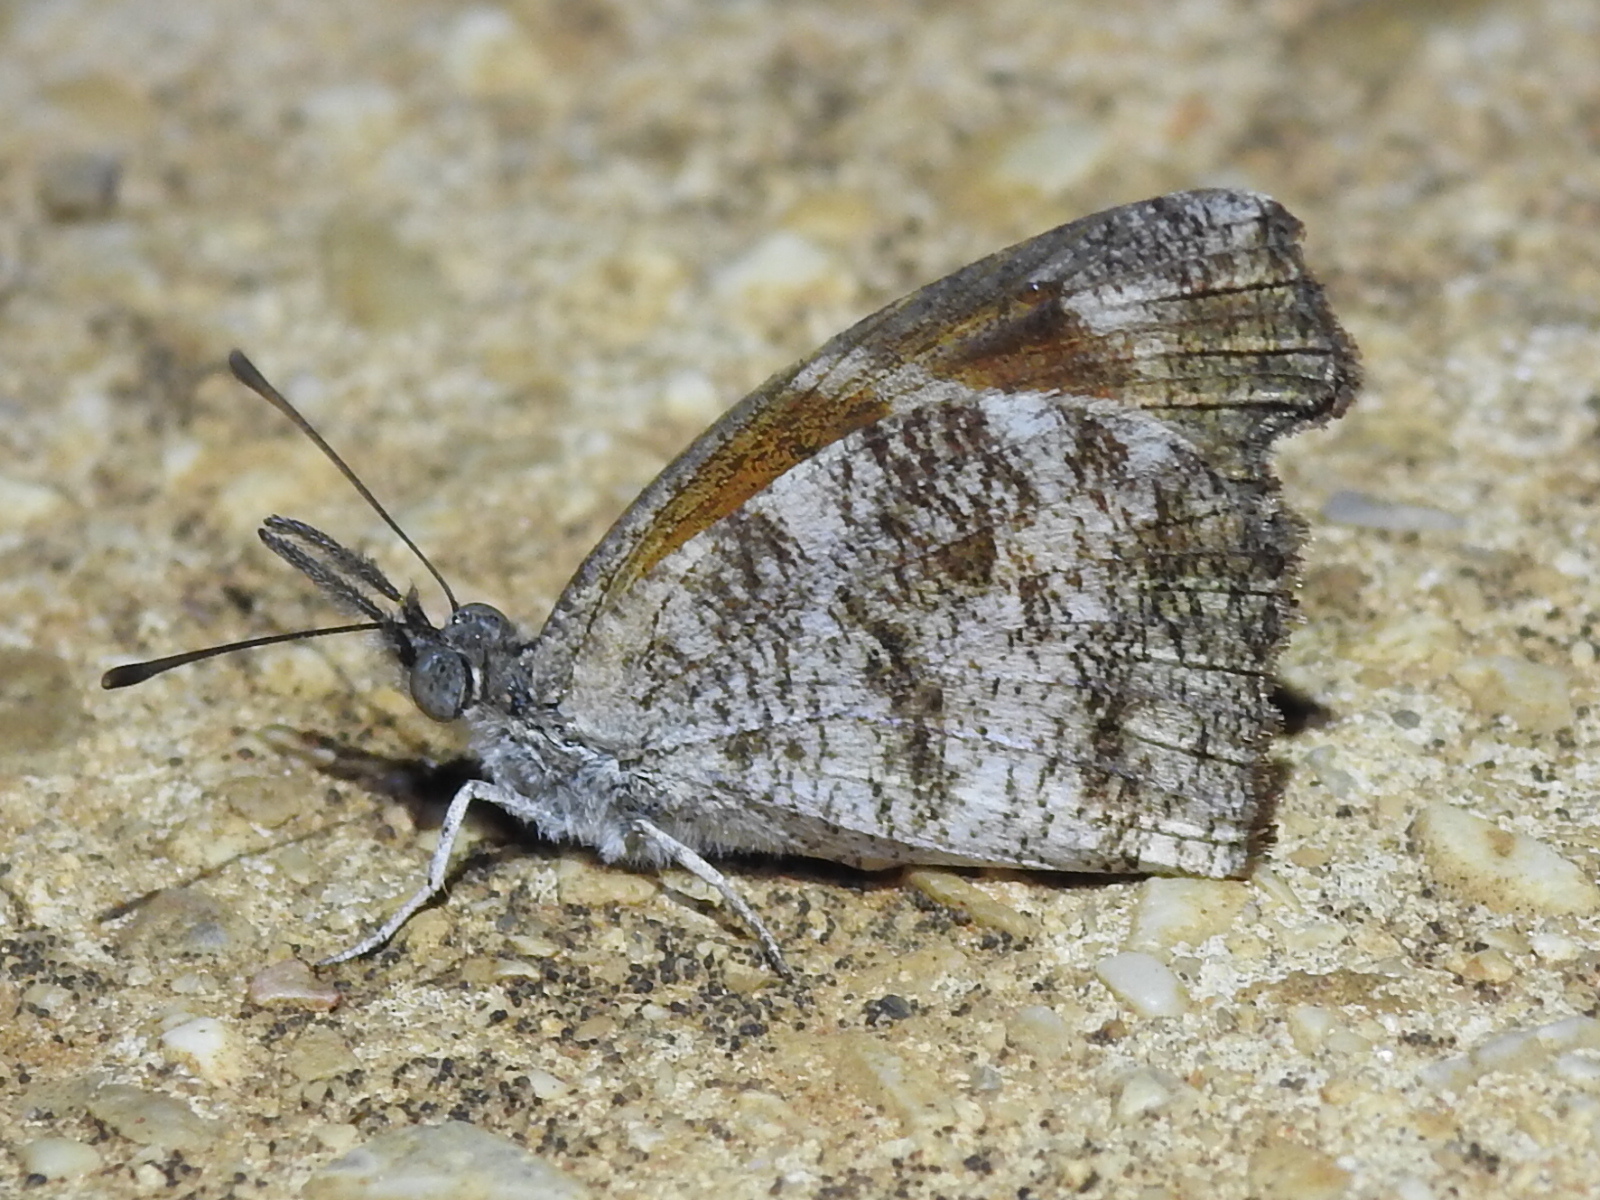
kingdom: Animalia
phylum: Arthropoda
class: Insecta
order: Lepidoptera
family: Nymphalidae
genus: Libytheana
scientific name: Libytheana carinenta
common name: American snout
